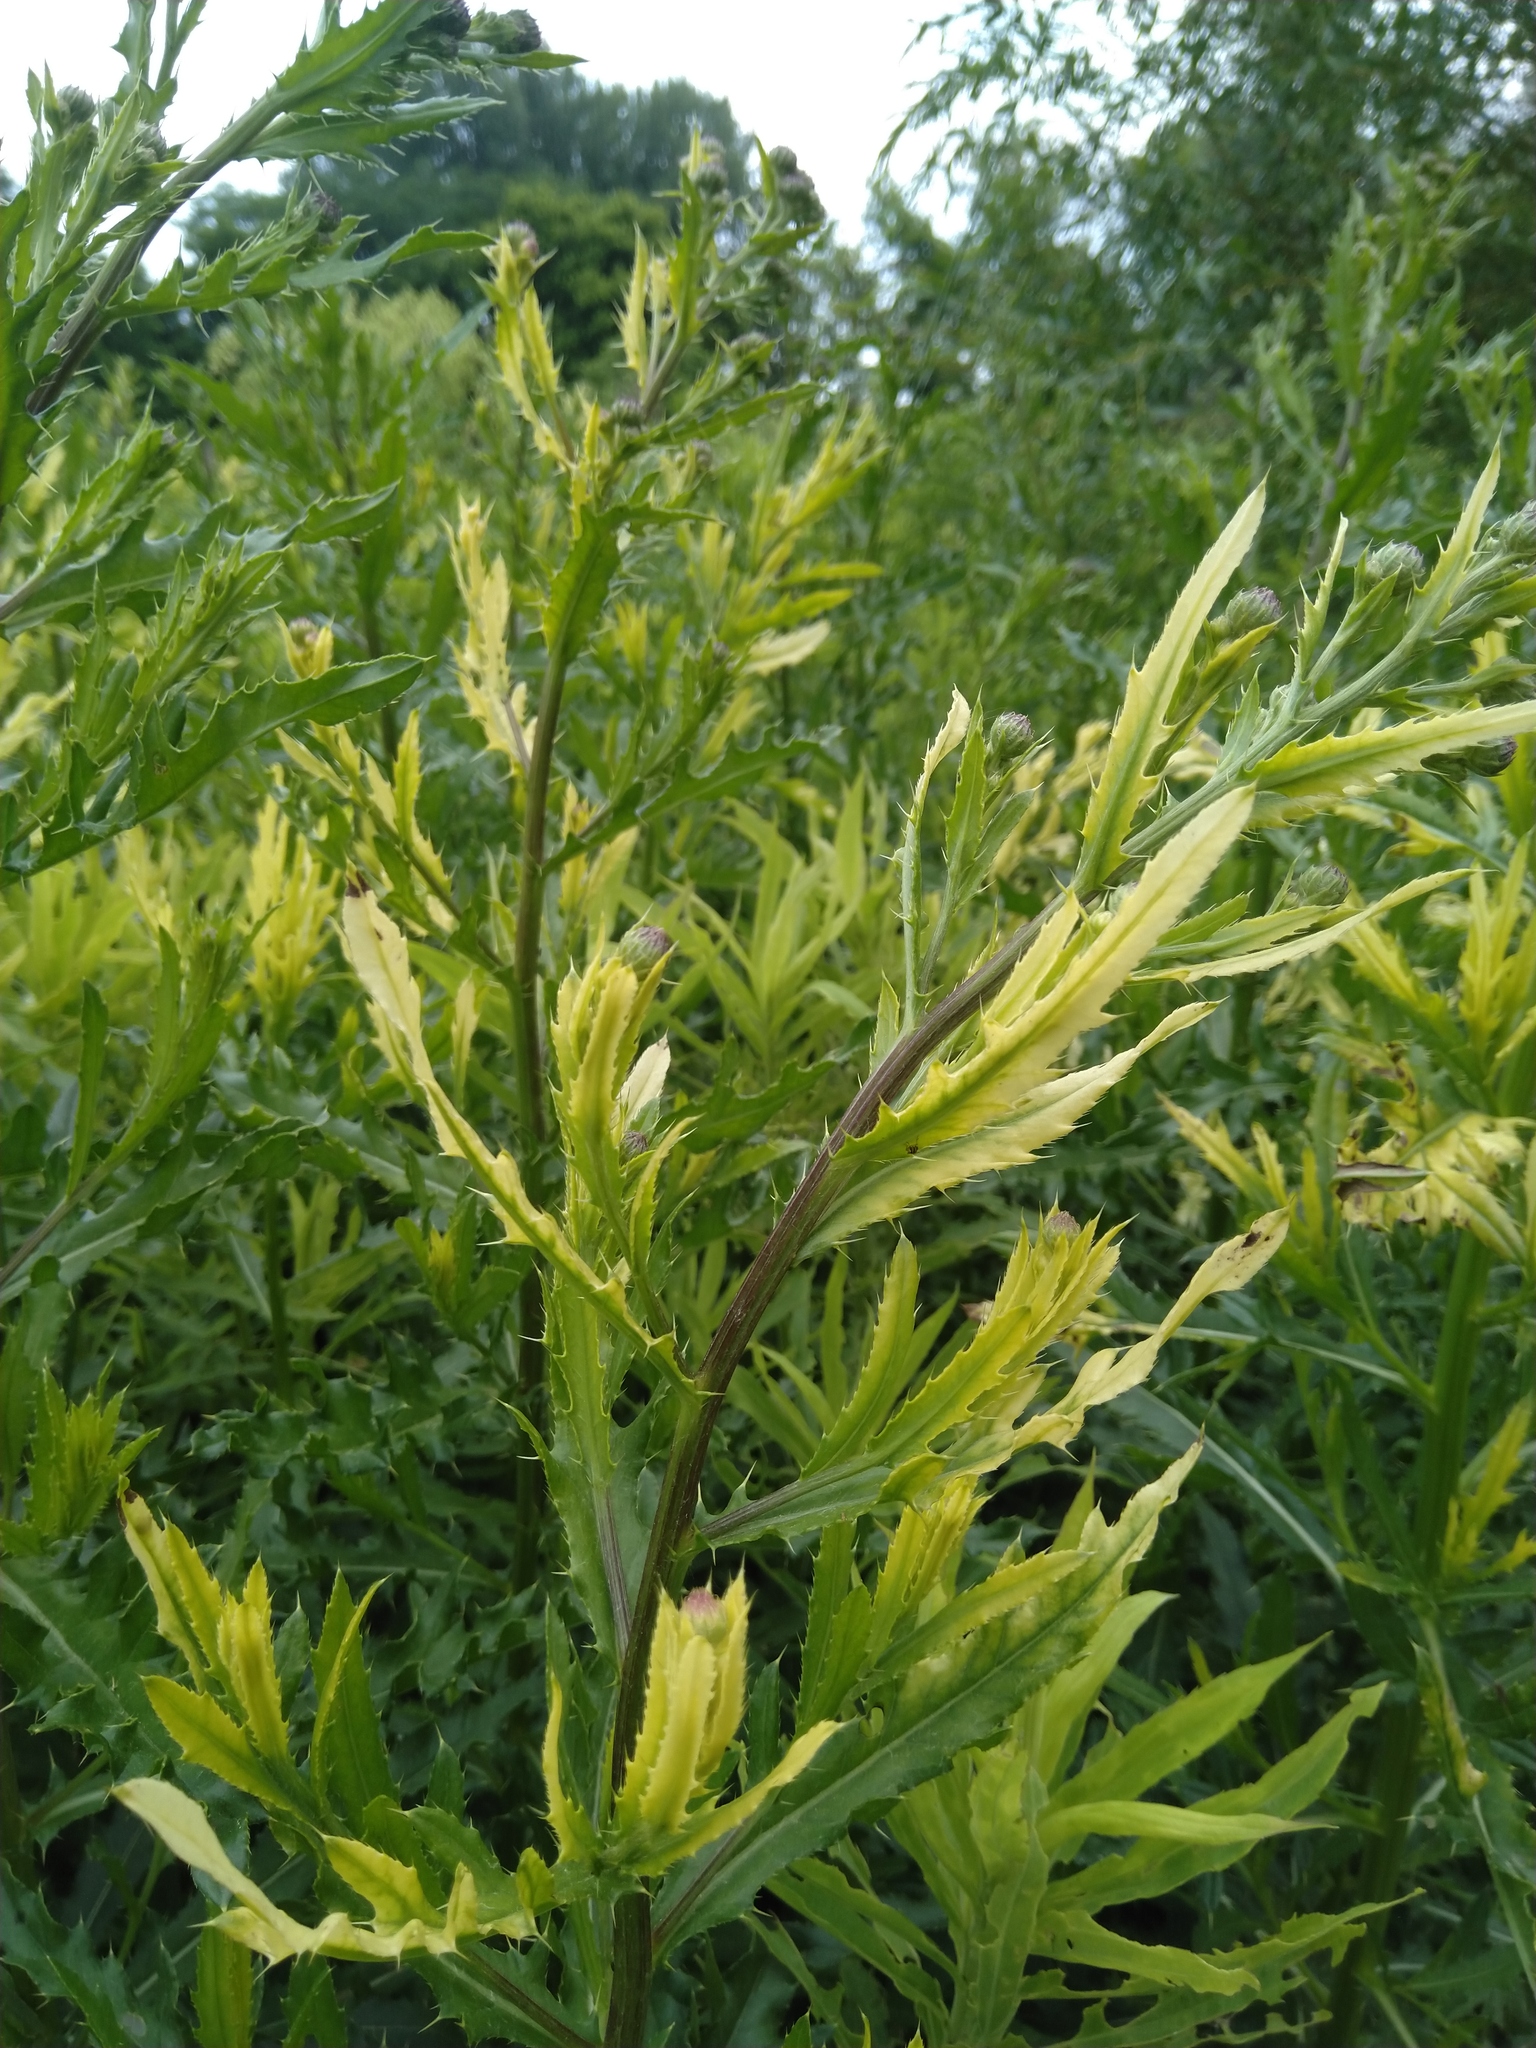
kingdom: Bacteria
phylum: Proteobacteria
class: Gammaproteobacteria
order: Pseudomonadales
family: Pseudomonadaceae
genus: Pseudomonas
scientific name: Pseudomonas syringae
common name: Bacterial speck
